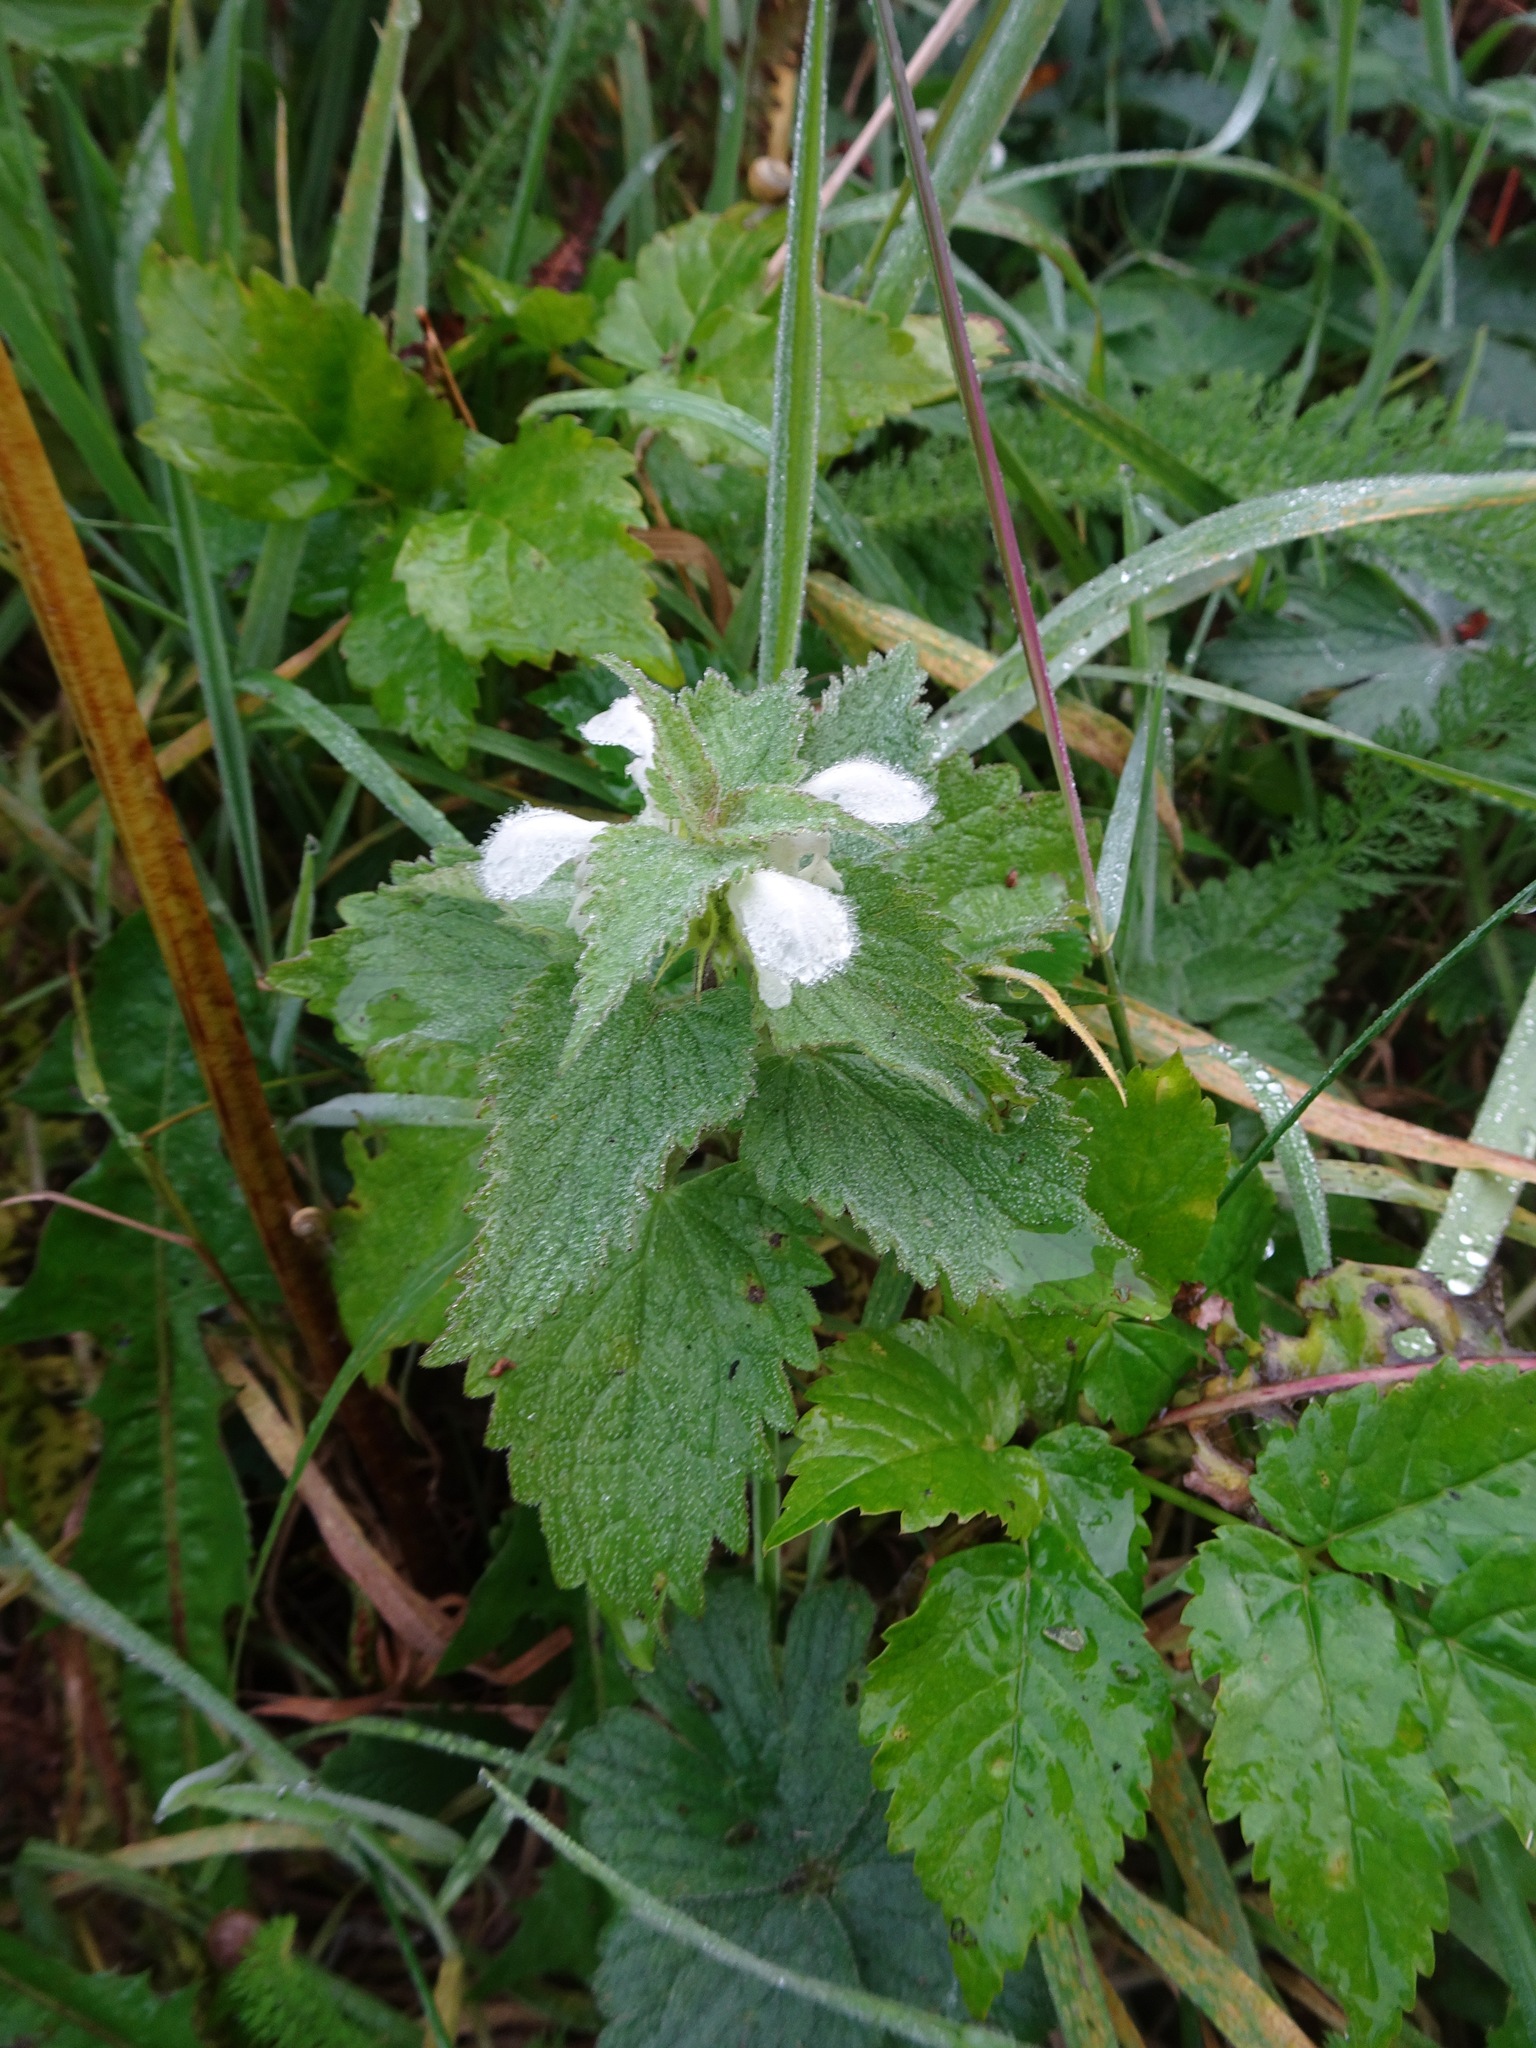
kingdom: Plantae
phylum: Tracheophyta
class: Magnoliopsida
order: Lamiales
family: Lamiaceae
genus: Lamium
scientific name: Lamium album
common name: White dead-nettle
